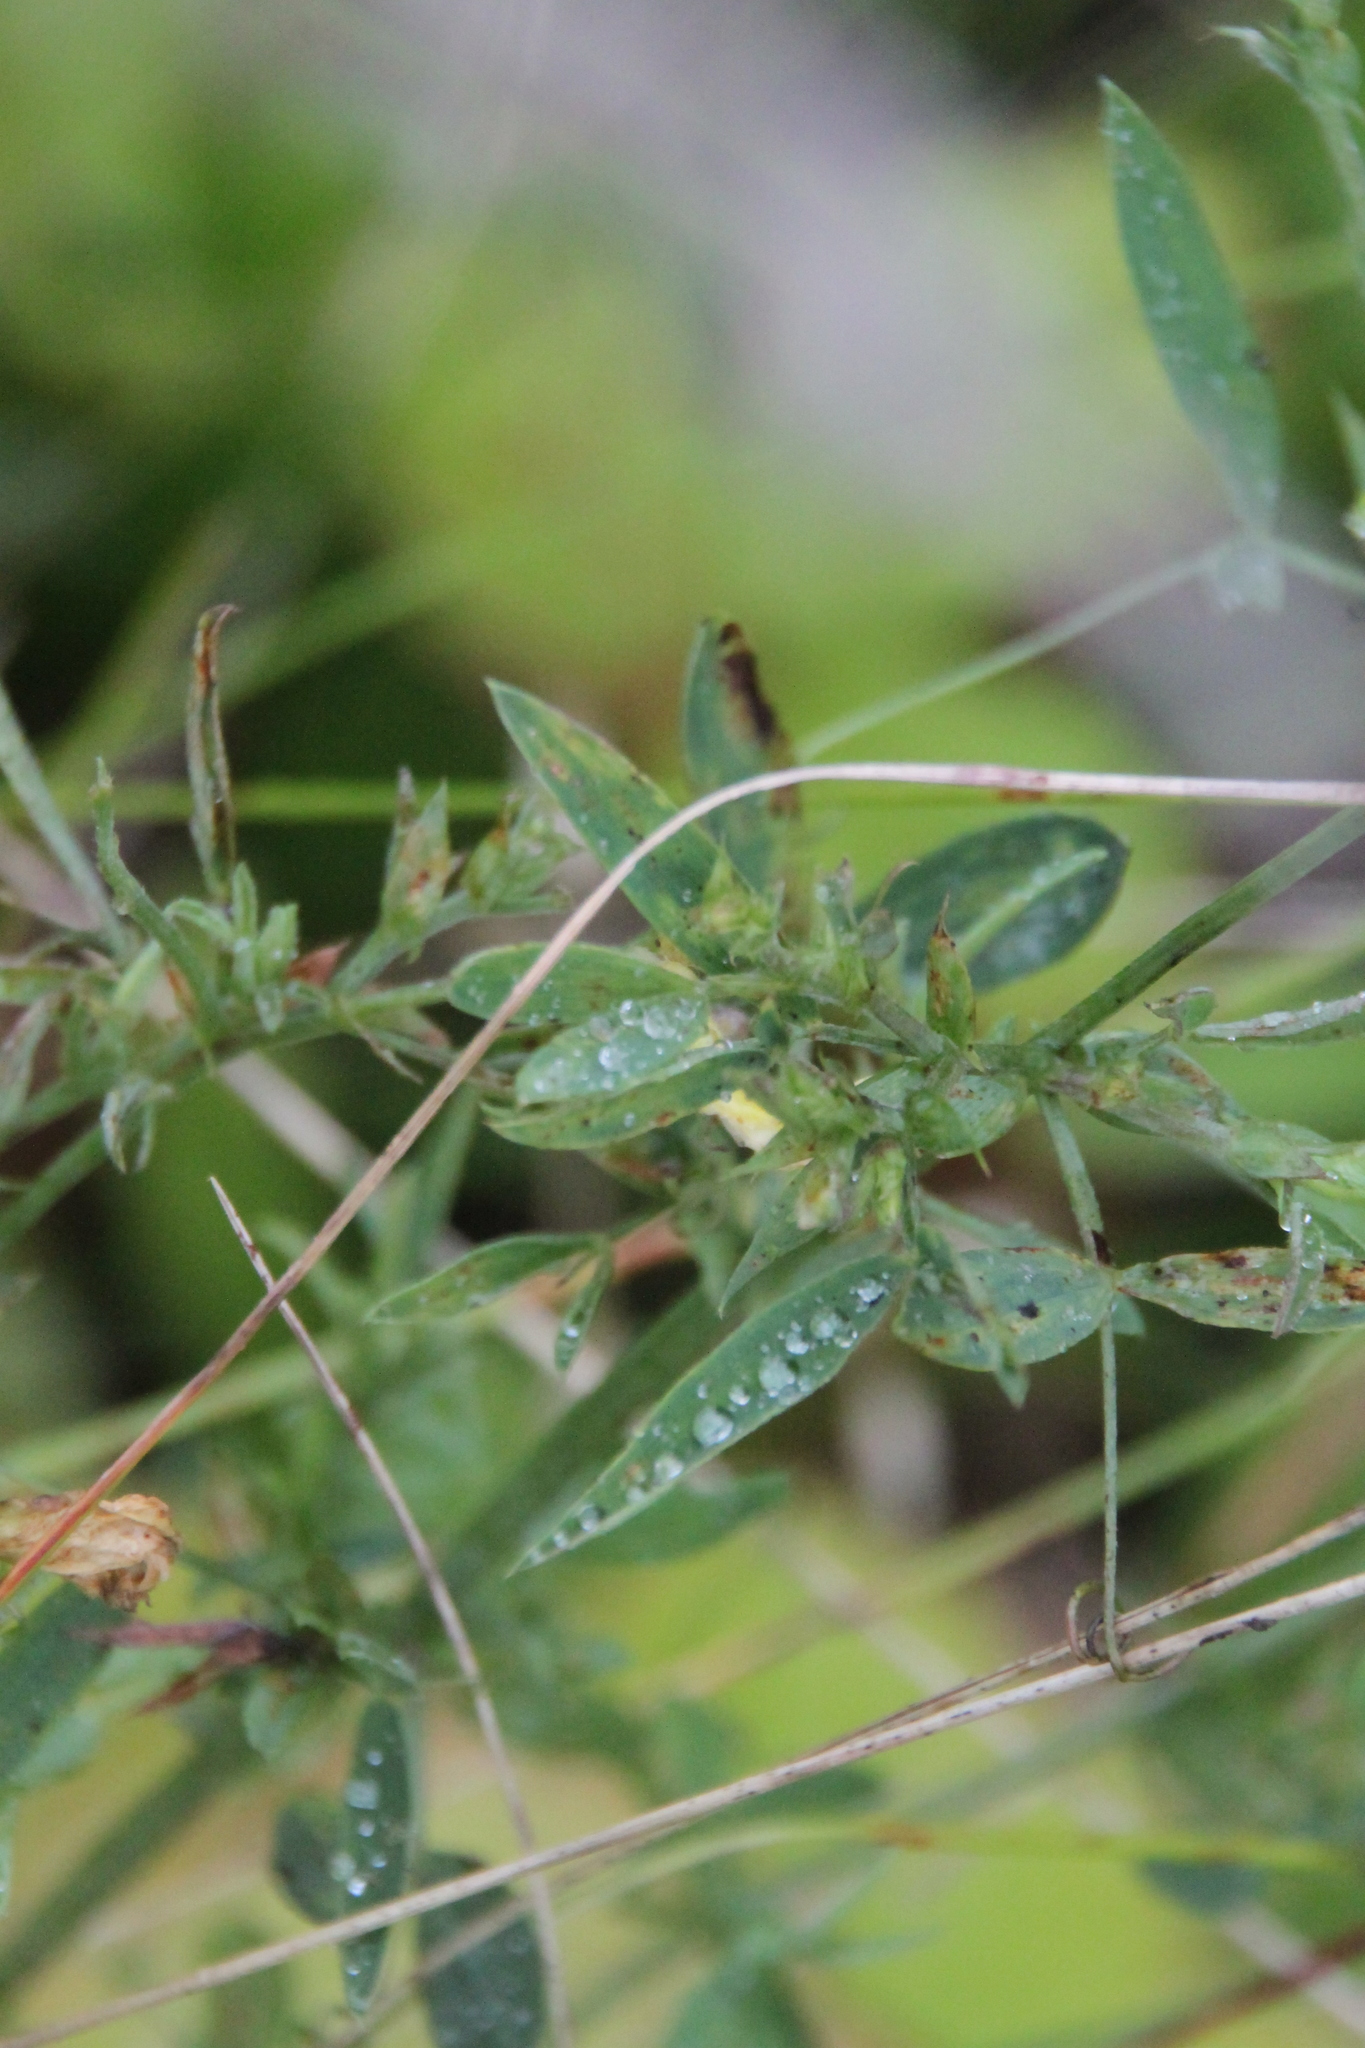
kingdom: Plantae
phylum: Tracheophyta
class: Magnoliopsida
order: Fabales
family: Fabaceae
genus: Lathyrus
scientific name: Lathyrus pratensis
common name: Meadow vetchling
